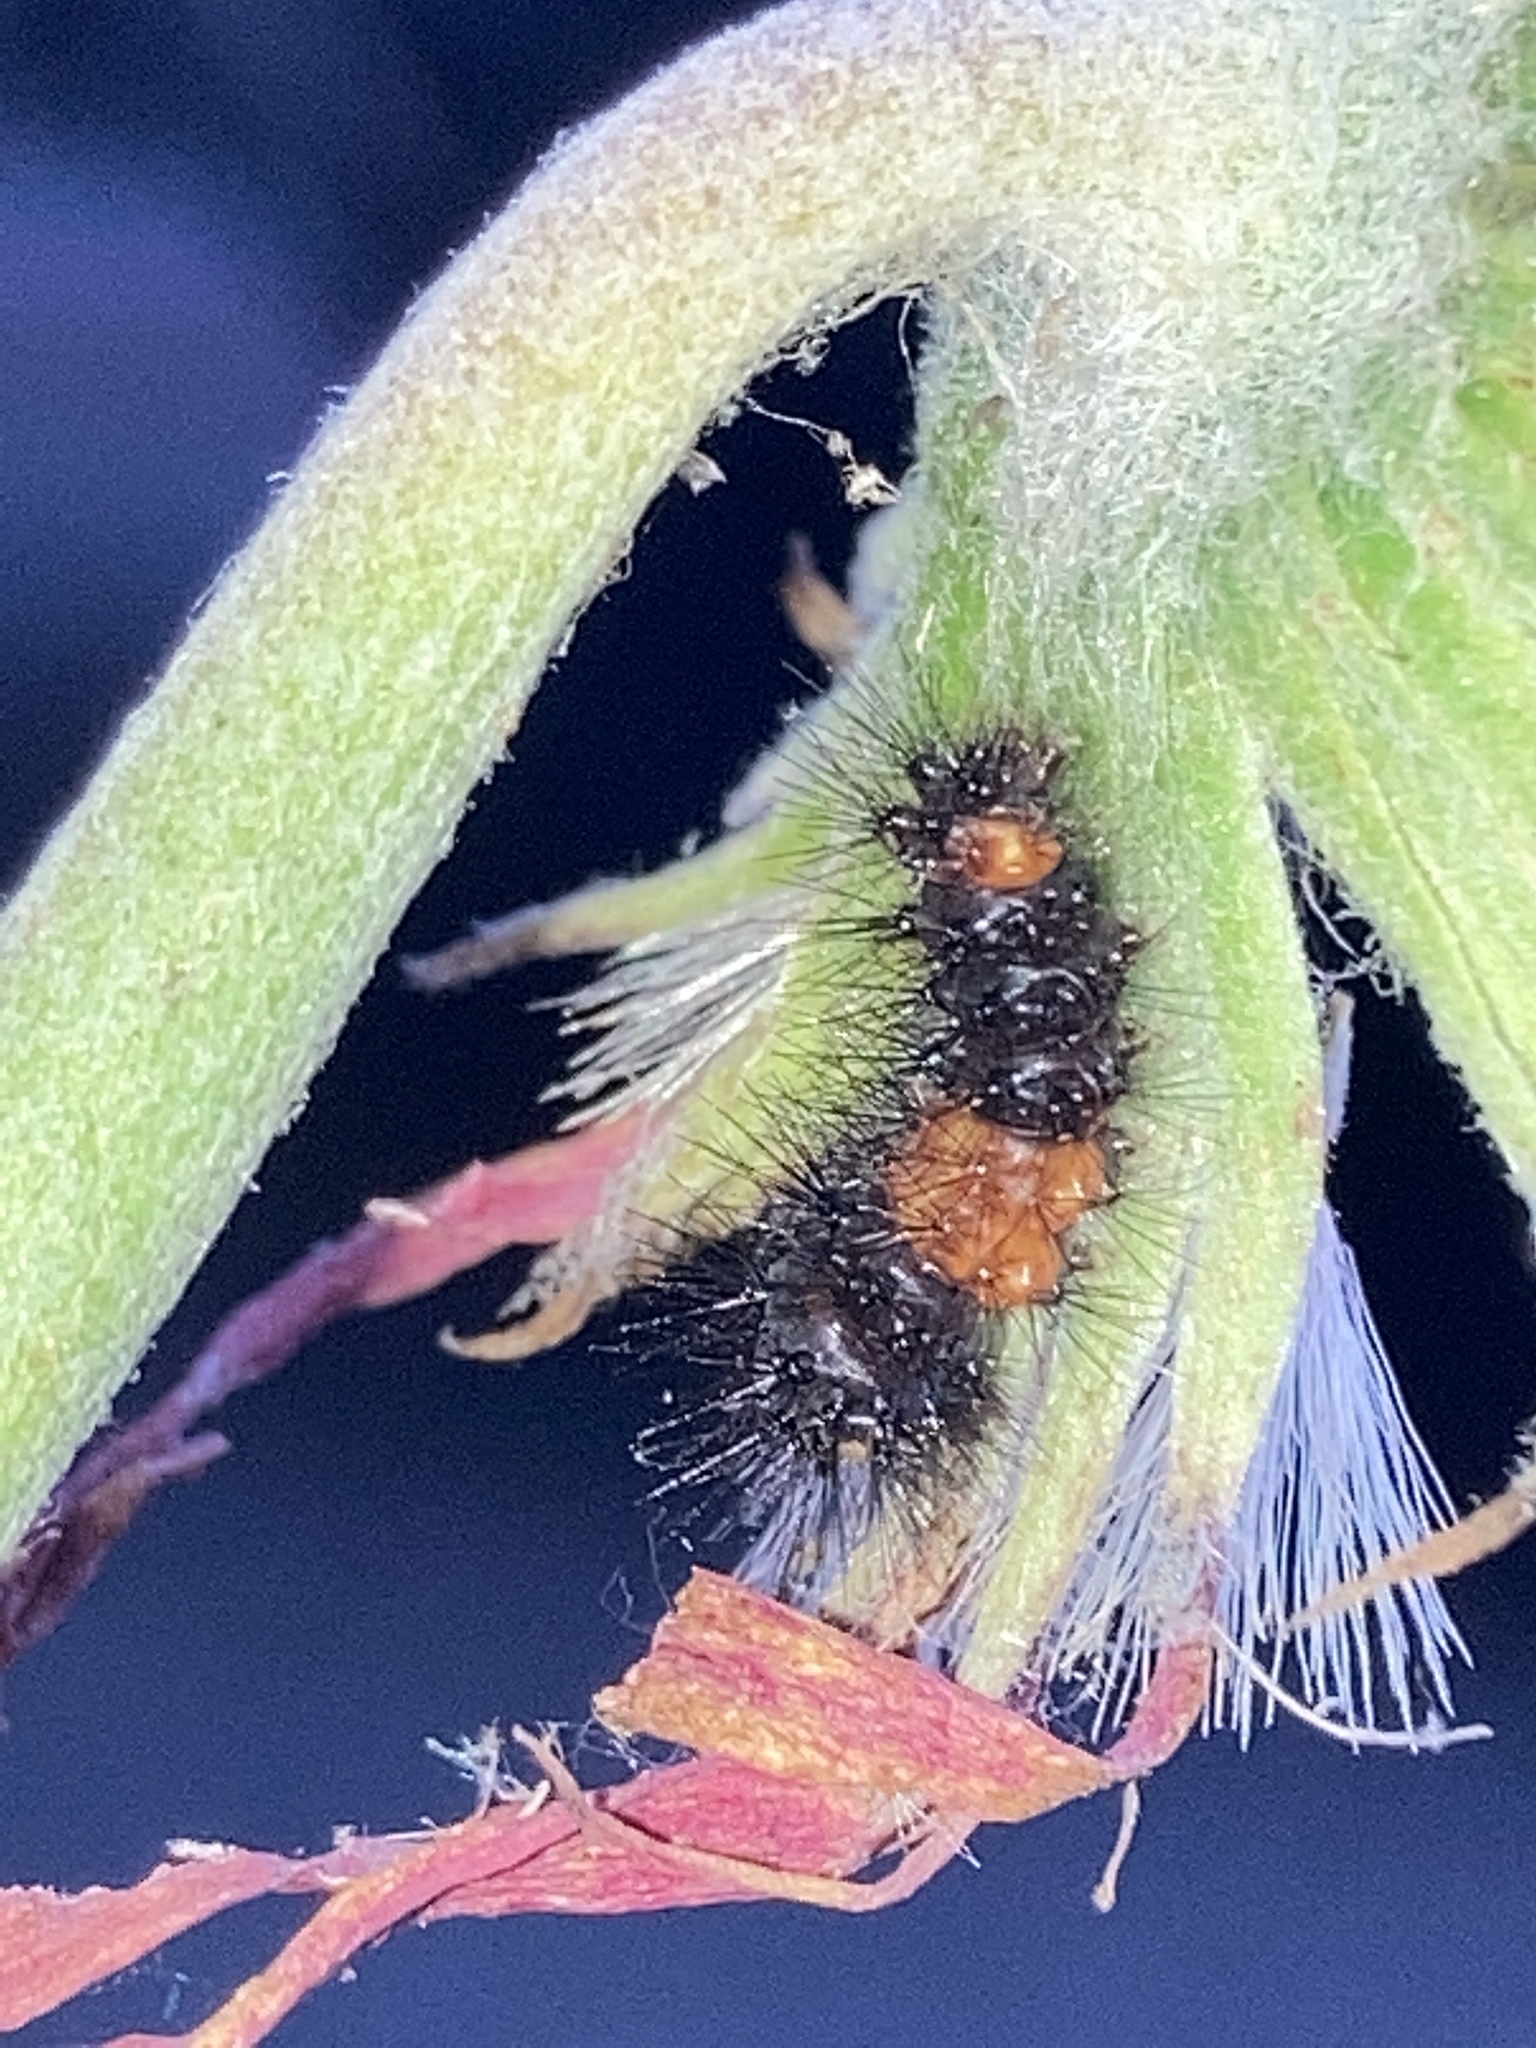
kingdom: Animalia
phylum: Arthropoda
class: Insecta
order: Lepidoptera
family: Erebidae
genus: Hypercompe
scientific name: Hypercompe scribonia
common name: Giant leopard moth
